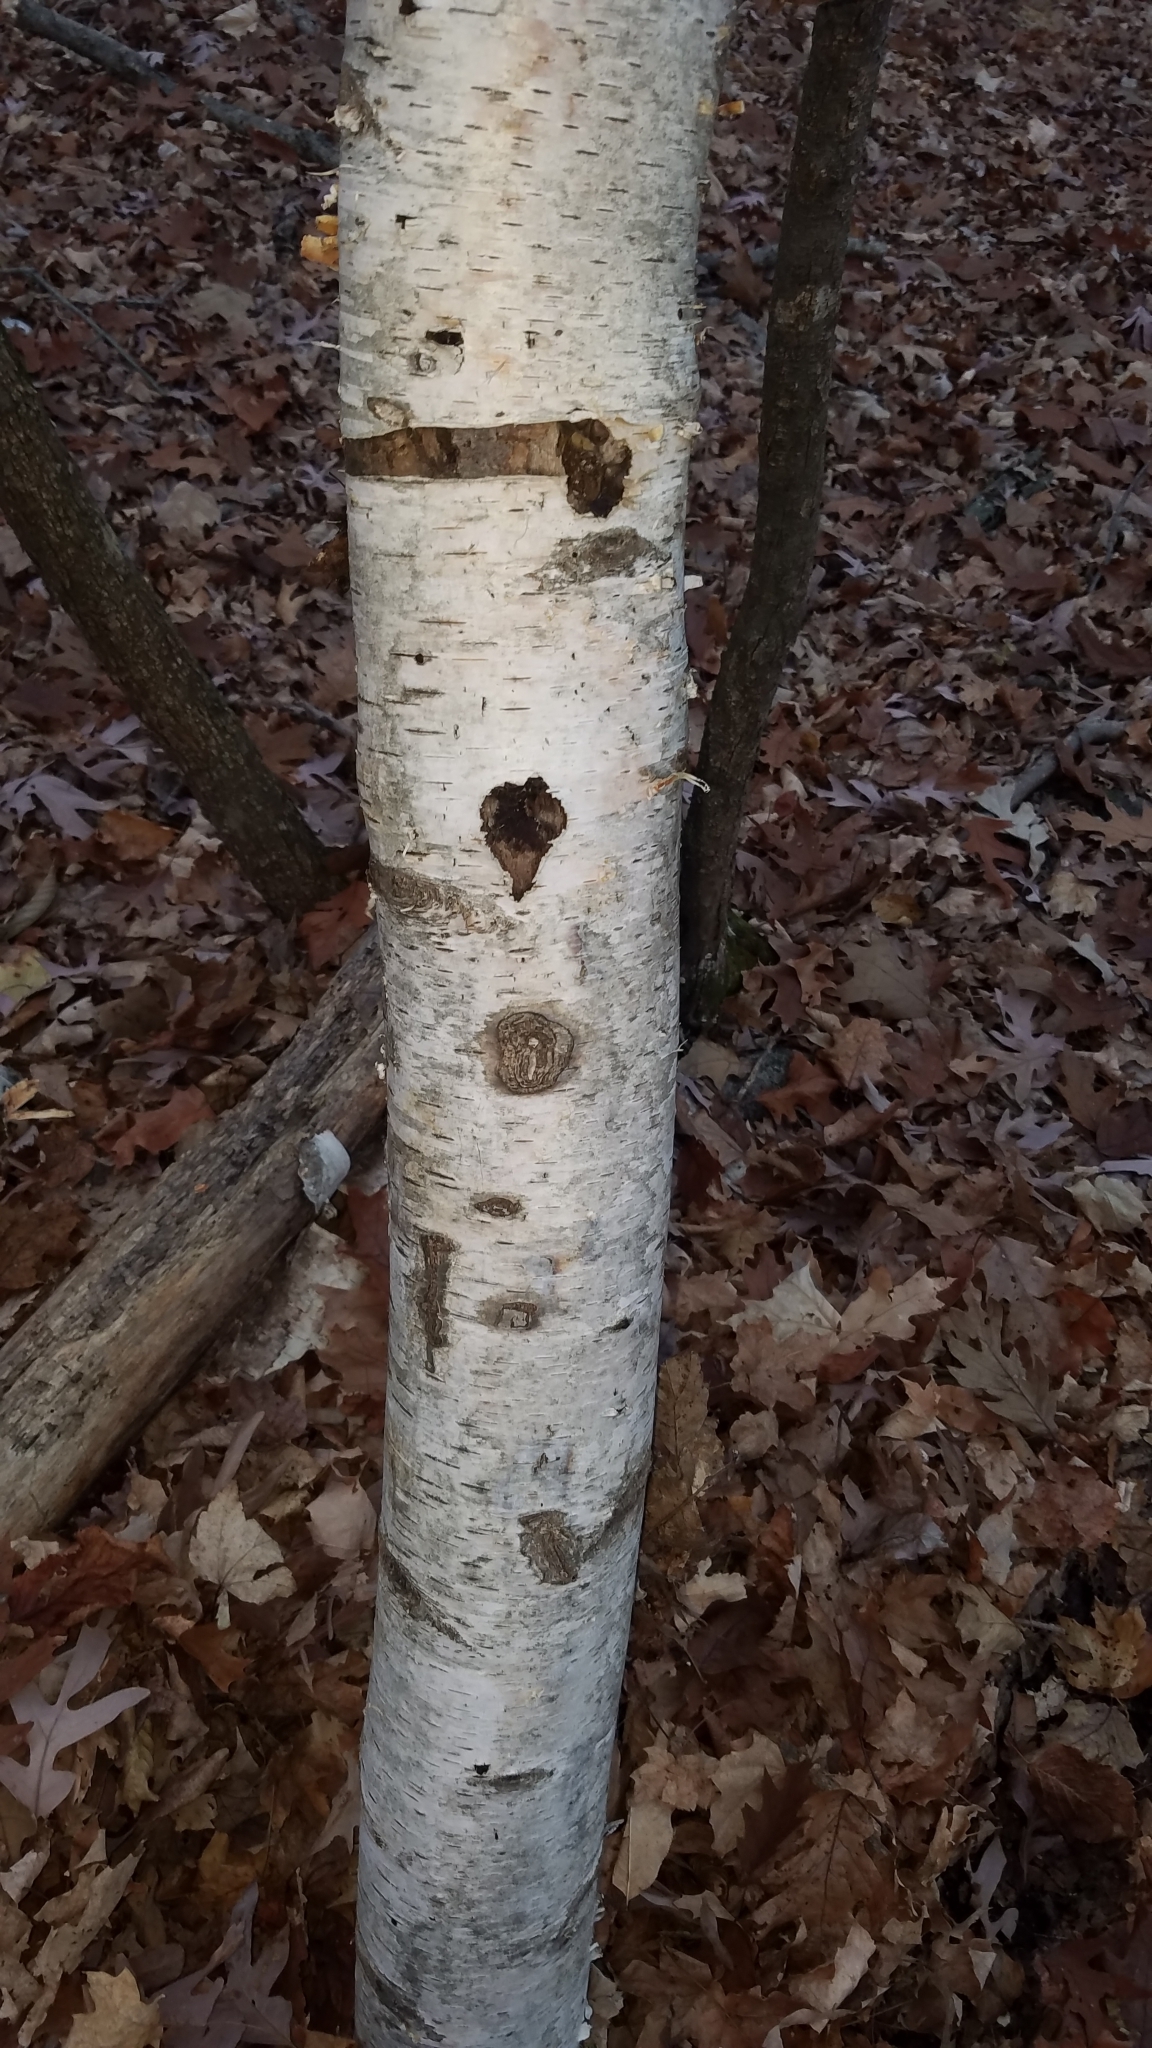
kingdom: Plantae
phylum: Tracheophyta
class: Magnoliopsida
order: Fagales
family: Betulaceae
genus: Betula
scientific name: Betula papyrifera
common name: Paper birch
